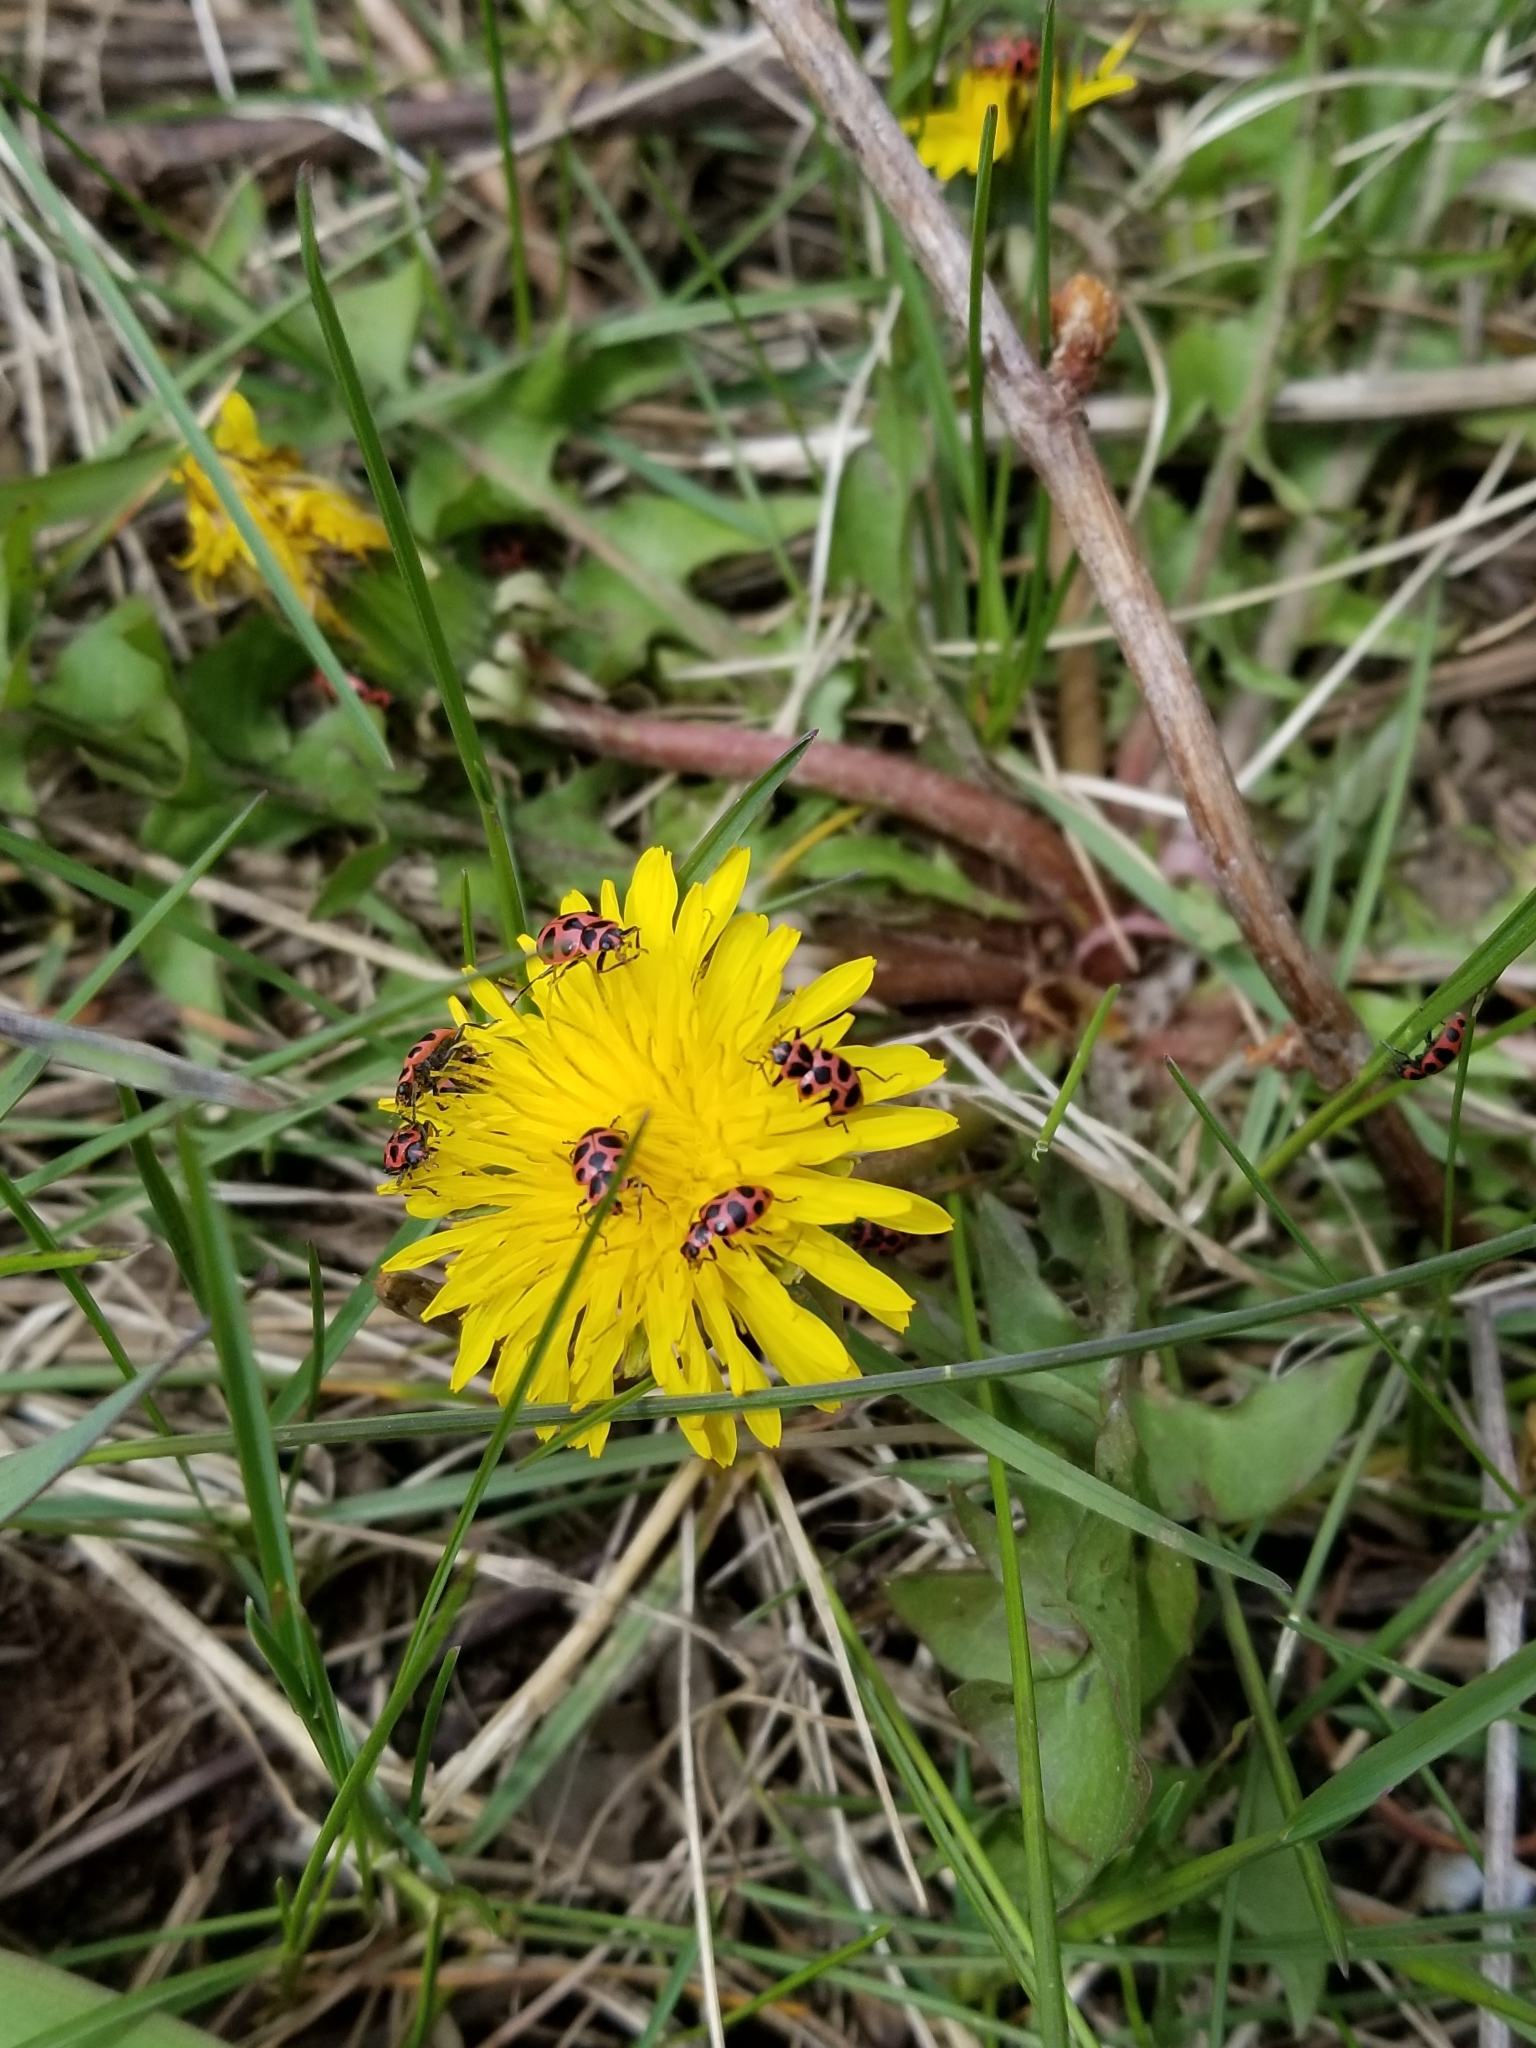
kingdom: Plantae
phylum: Tracheophyta
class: Magnoliopsida
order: Asterales
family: Asteraceae
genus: Taraxacum
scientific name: Taraxacum officinale
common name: Common dandelion
